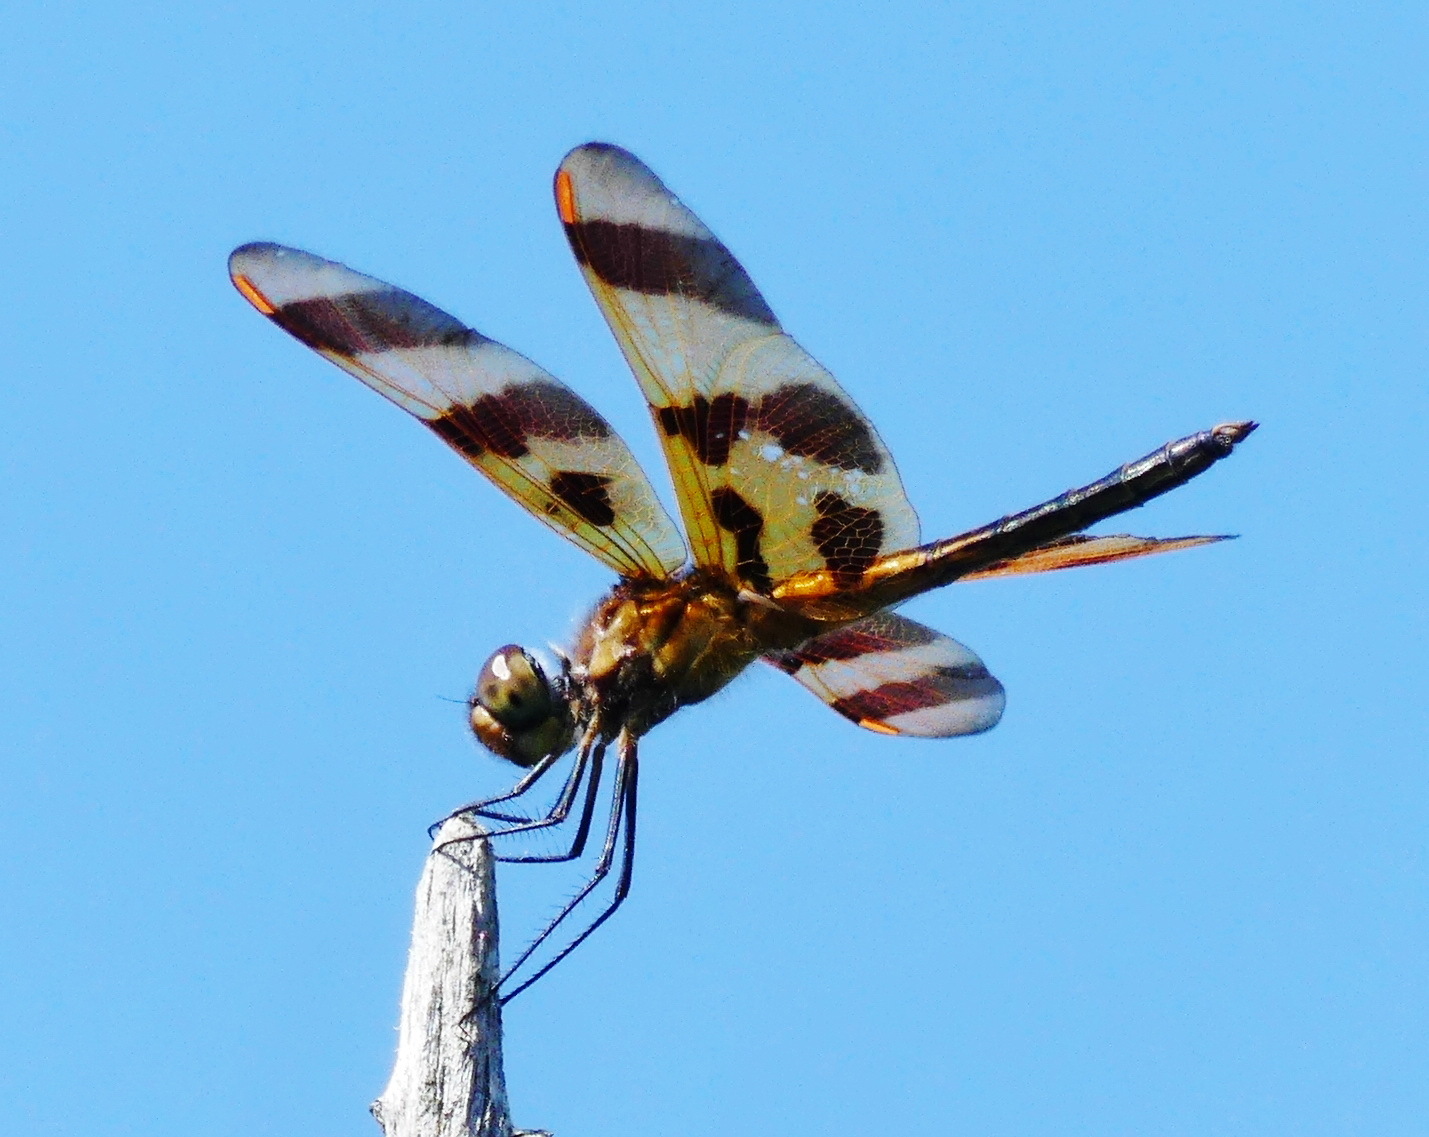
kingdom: Animalia
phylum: Arthropoda
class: Insecta
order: Odonata
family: Libellulidae
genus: Celithemis
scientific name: Celithemis eponina
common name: Halloween pennant
